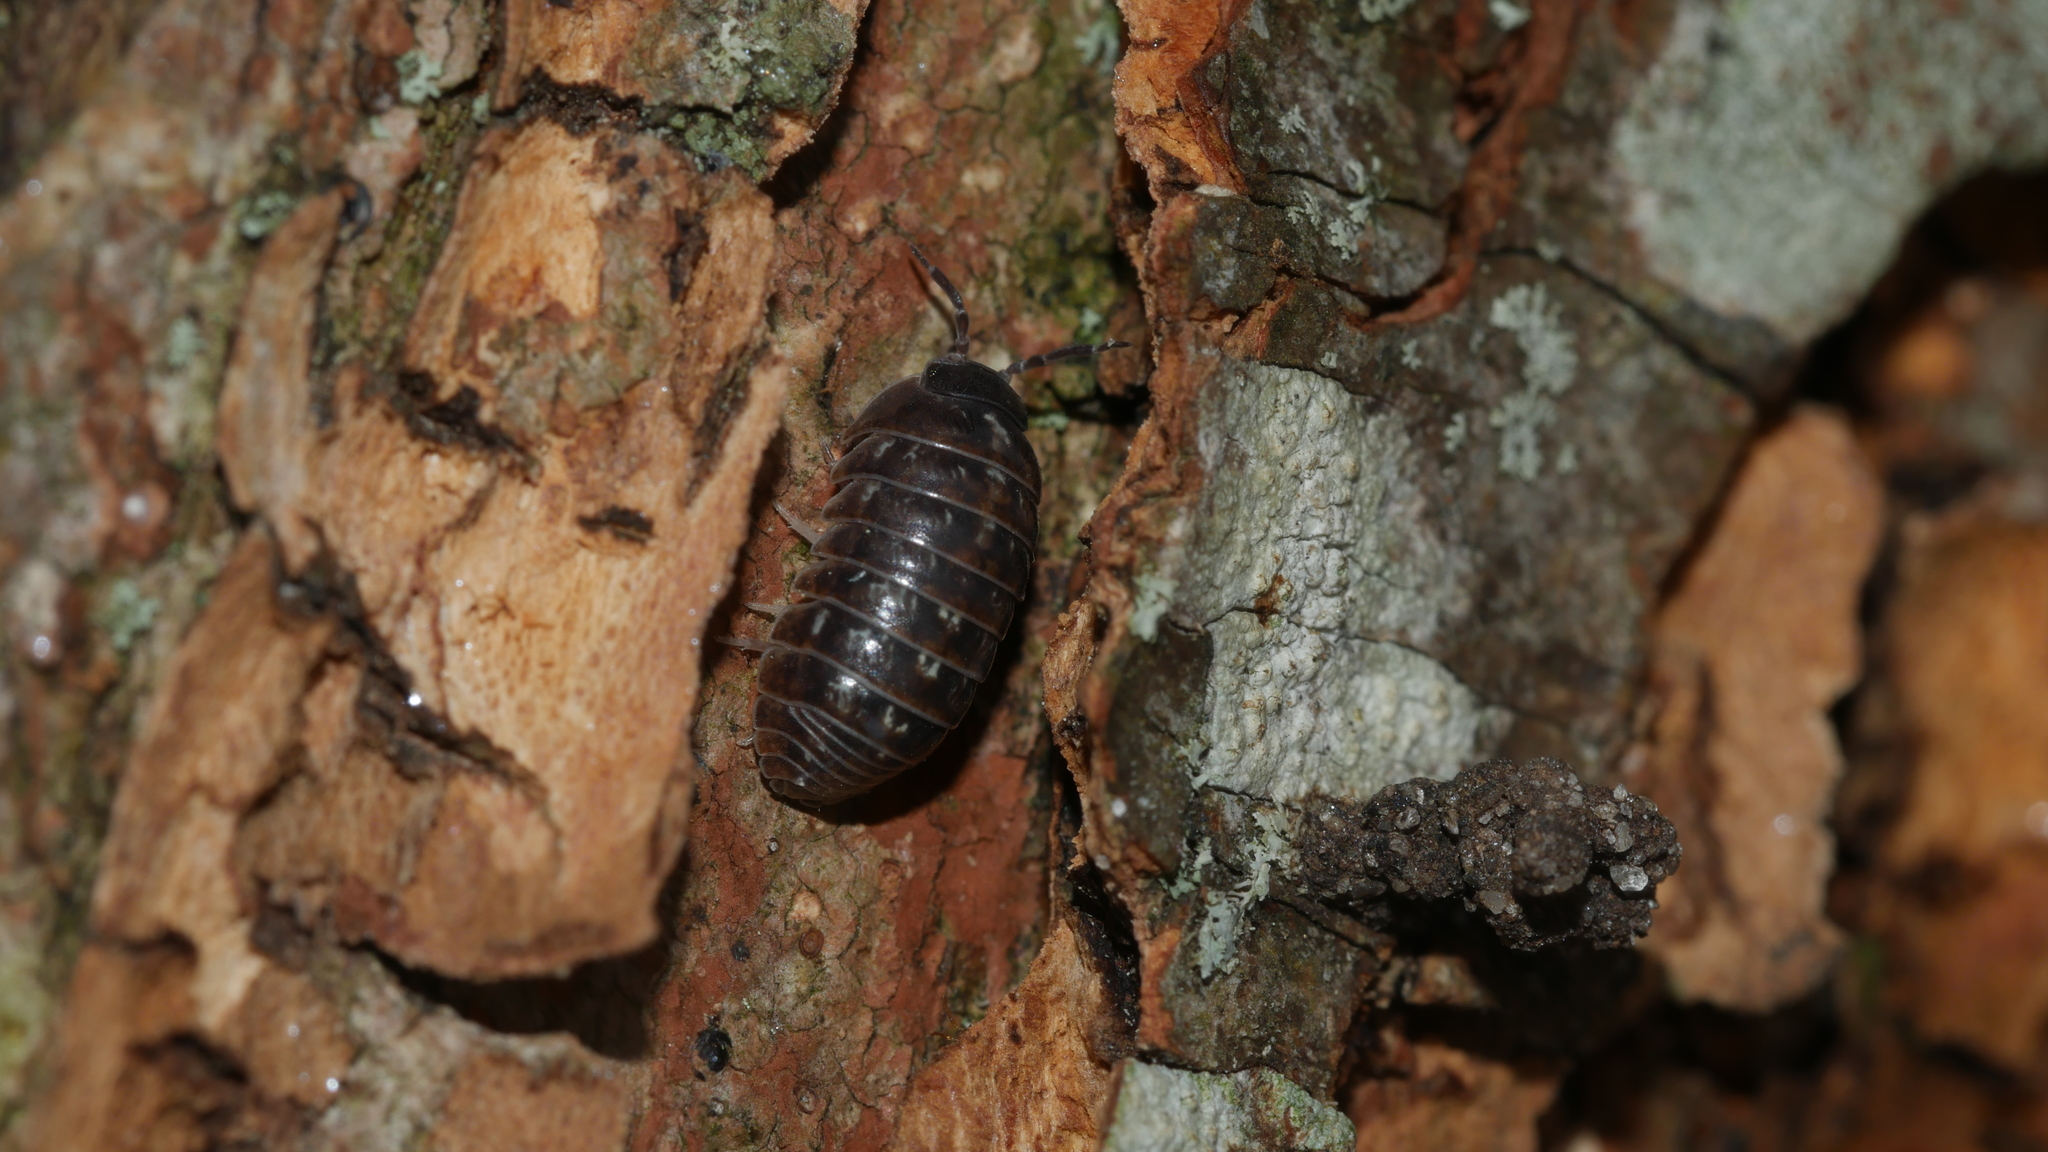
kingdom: Animalia
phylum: Arthropoda
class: Malacostraca
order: Isopoda
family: Armadillidiidae
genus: Armadillidium
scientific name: Armadillidium vulgare
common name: Common pill woodlouse
